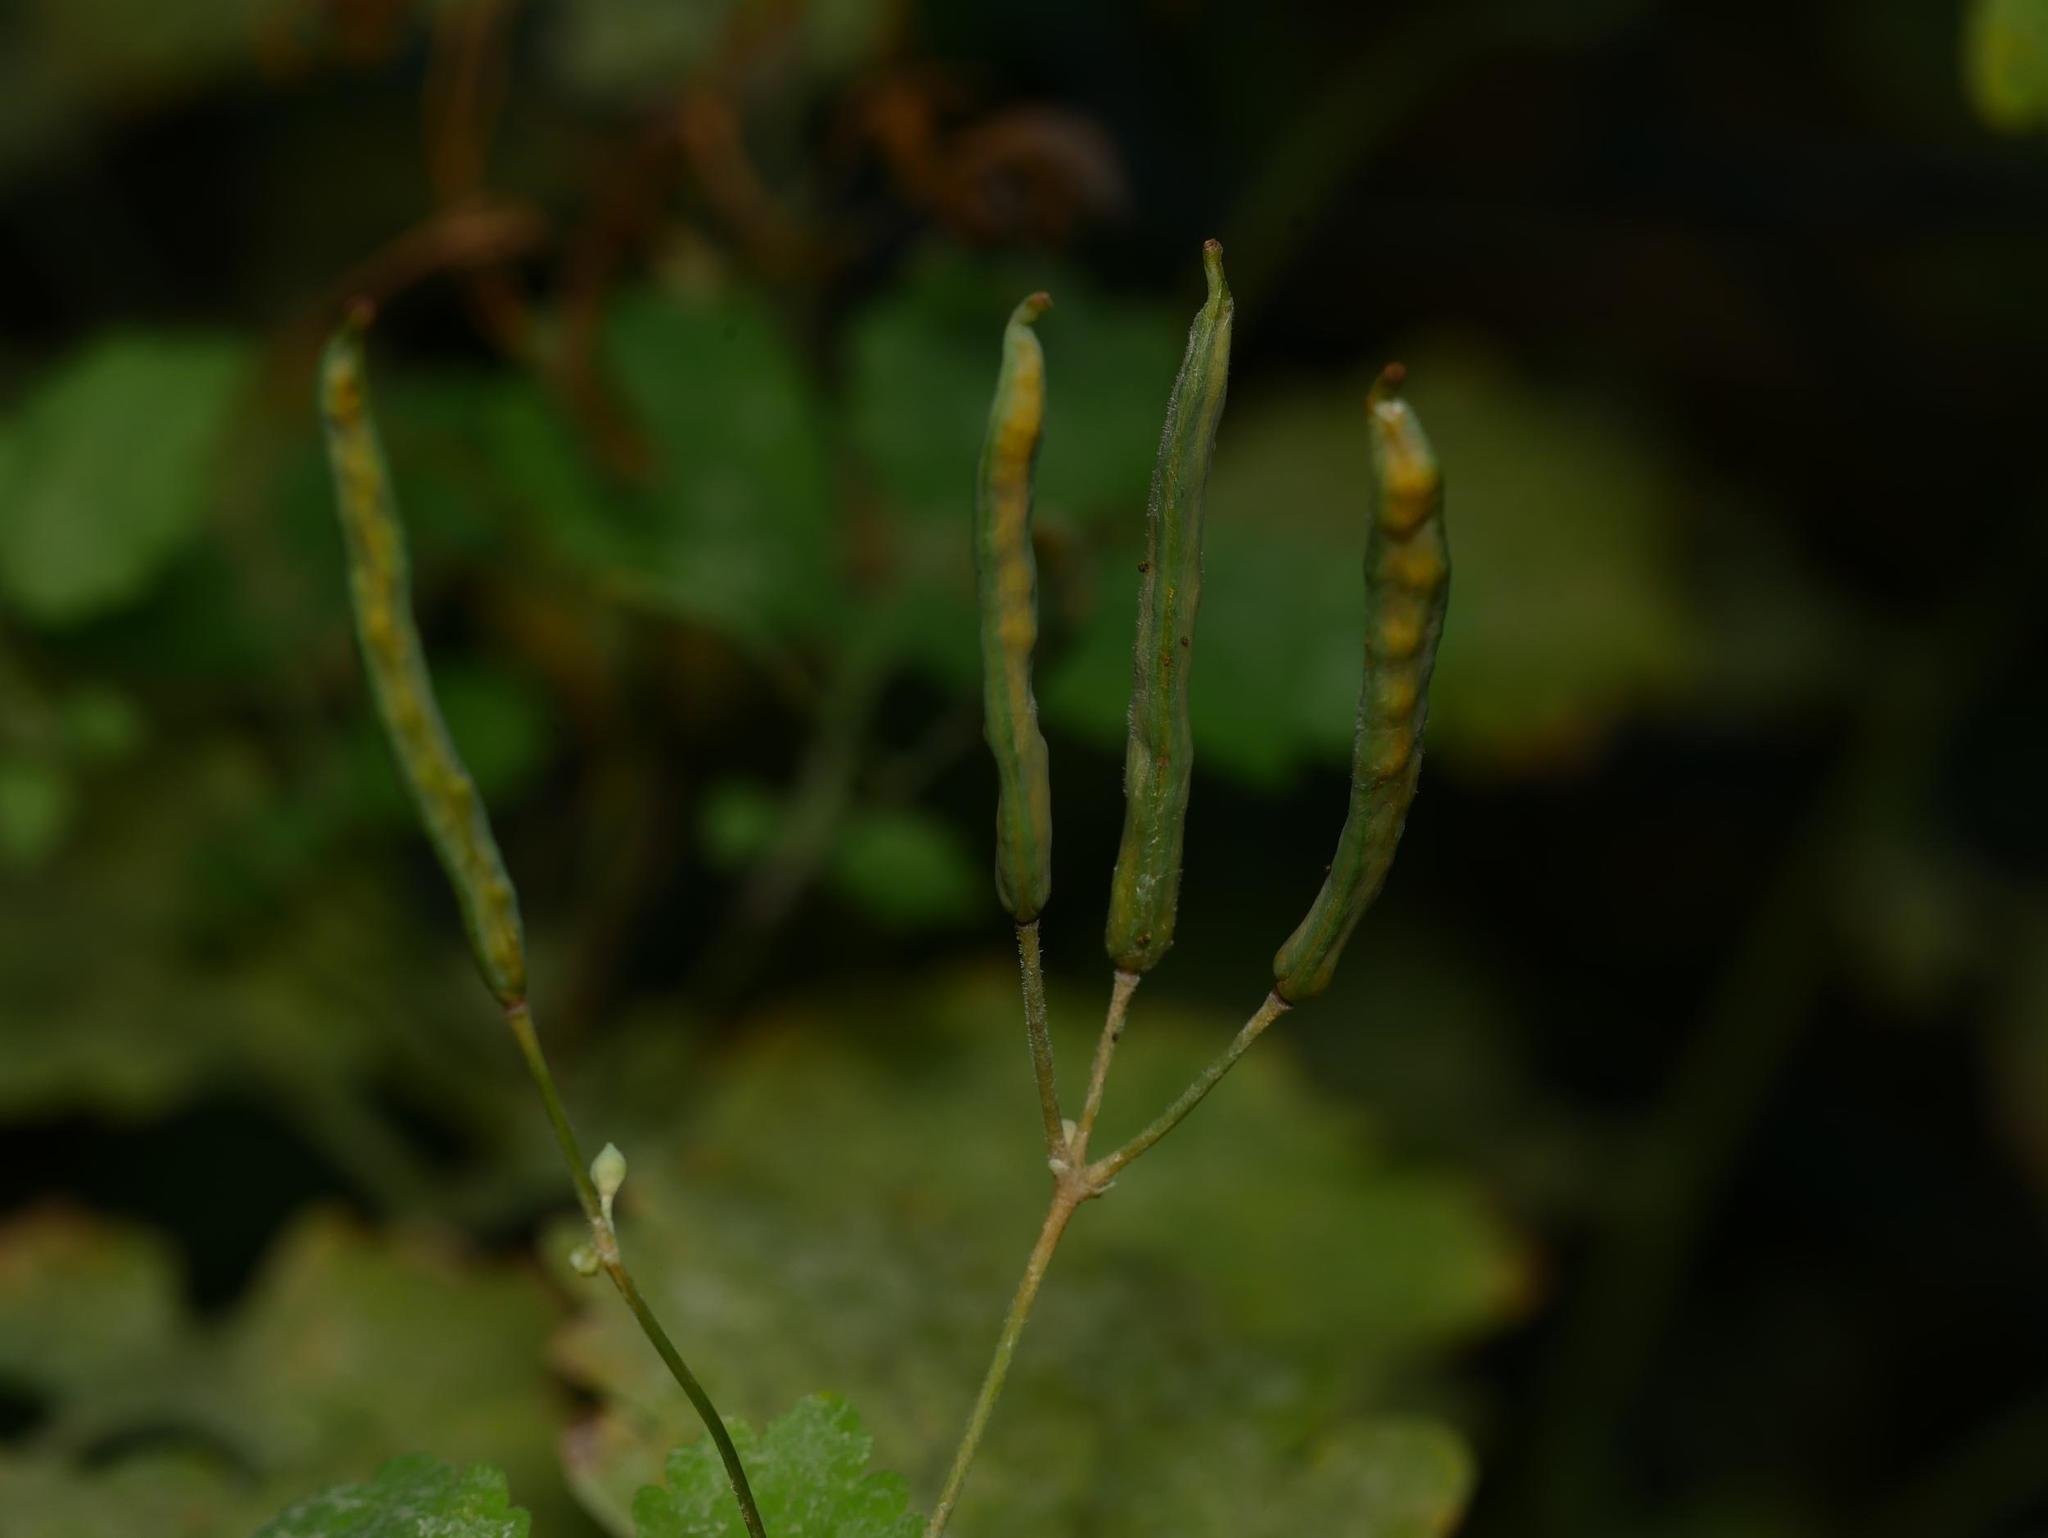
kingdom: Plantae
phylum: Tracheophyta
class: Magnoliopsida
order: Ranunculales
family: Papaveraceae
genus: Chelidonium
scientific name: Chelidonium majus
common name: Greater celandine
